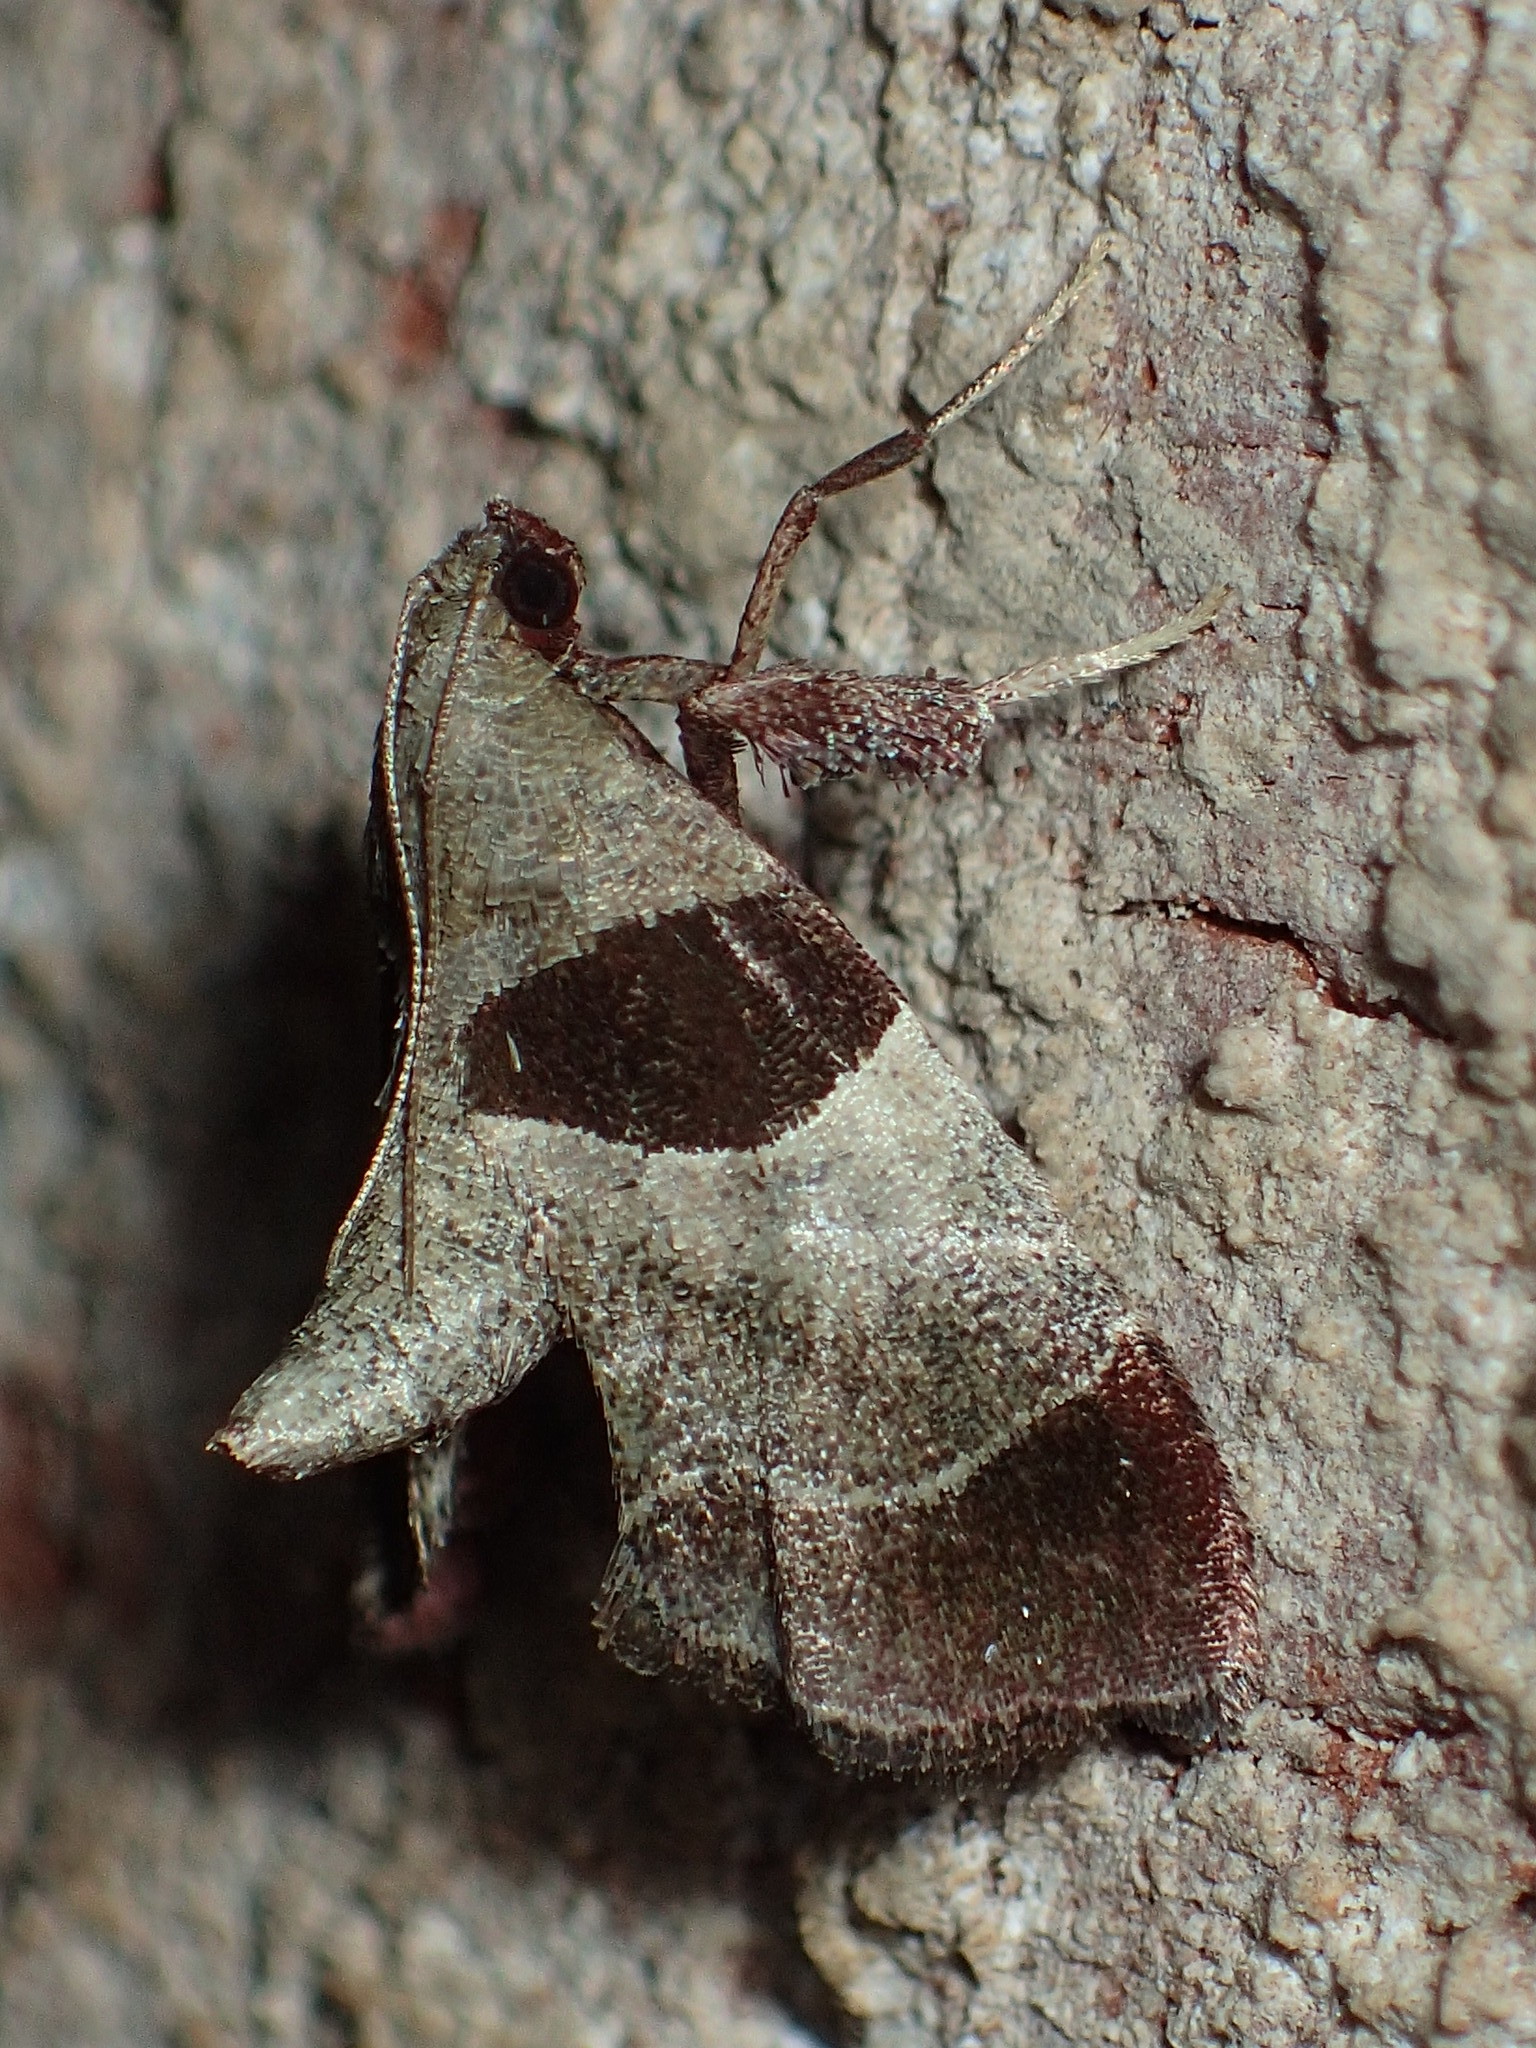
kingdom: Animalia
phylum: Arthropoda
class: Insecta
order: Lepidoptera
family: Pyralidae
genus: Tosale
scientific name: Tosale oviplagalis
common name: Dimorphic tosale moth
